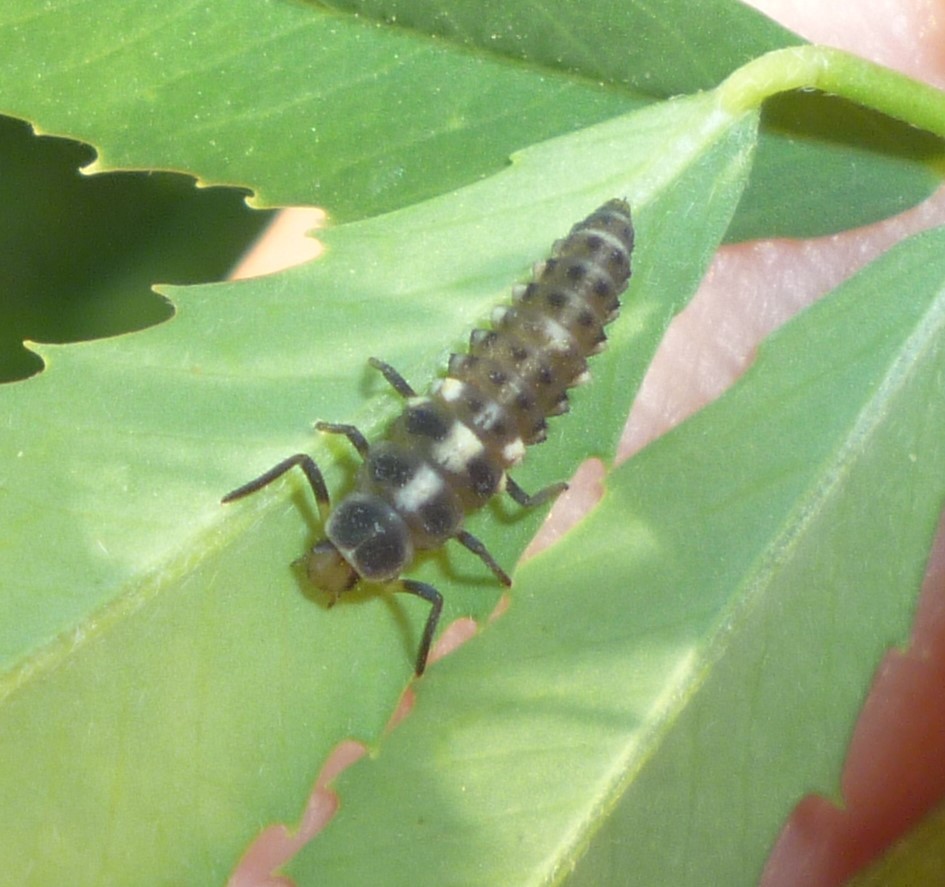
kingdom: Animalia
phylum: Arthropoda
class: Insecta
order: Coleoptera
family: Coccinellidae
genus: Propylaea
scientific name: Propylaea quatuordecimpunctata
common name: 14-spotted ladybird beetle
